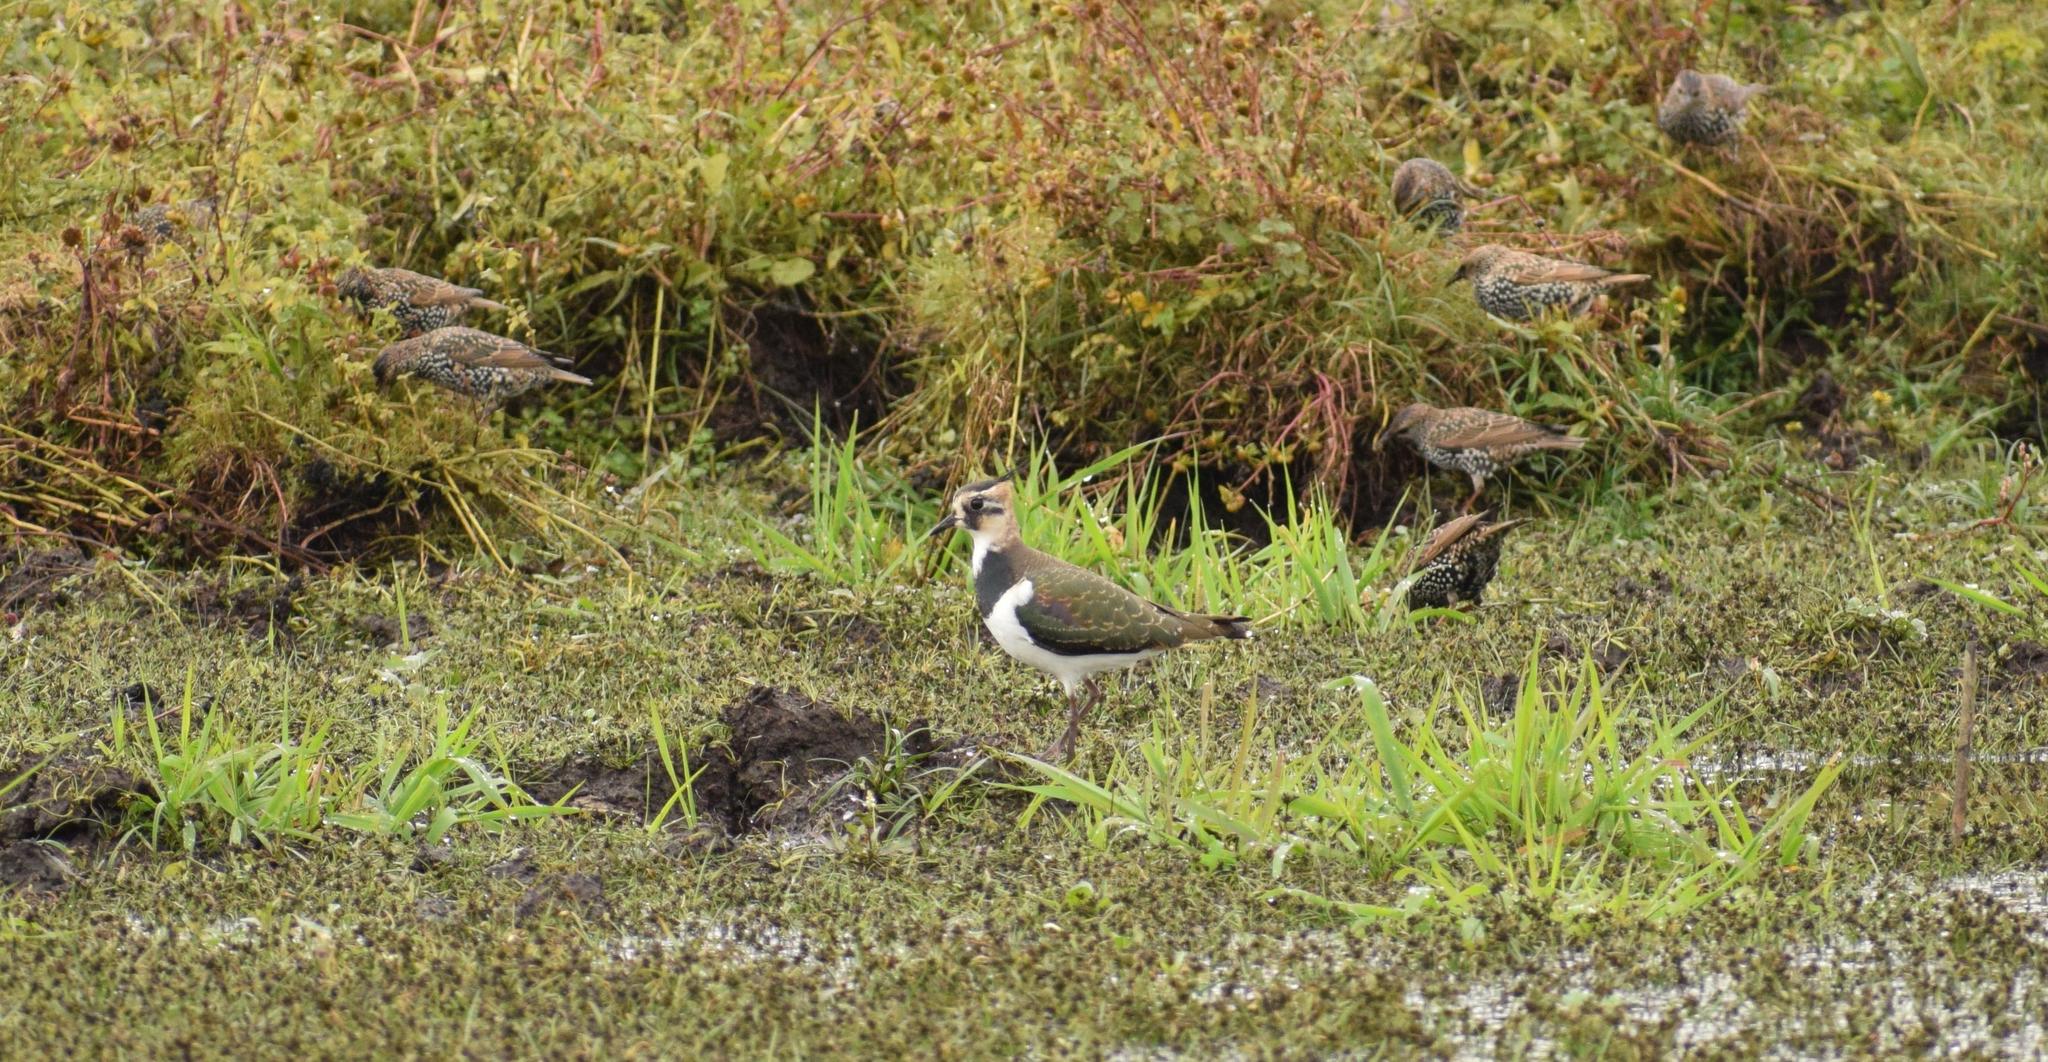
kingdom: Animalia
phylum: Chordata
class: Aves
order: Charadriiformes
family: Charadriidae
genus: Vanellus
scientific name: Vanellus vanellus
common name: Northern lapwing
